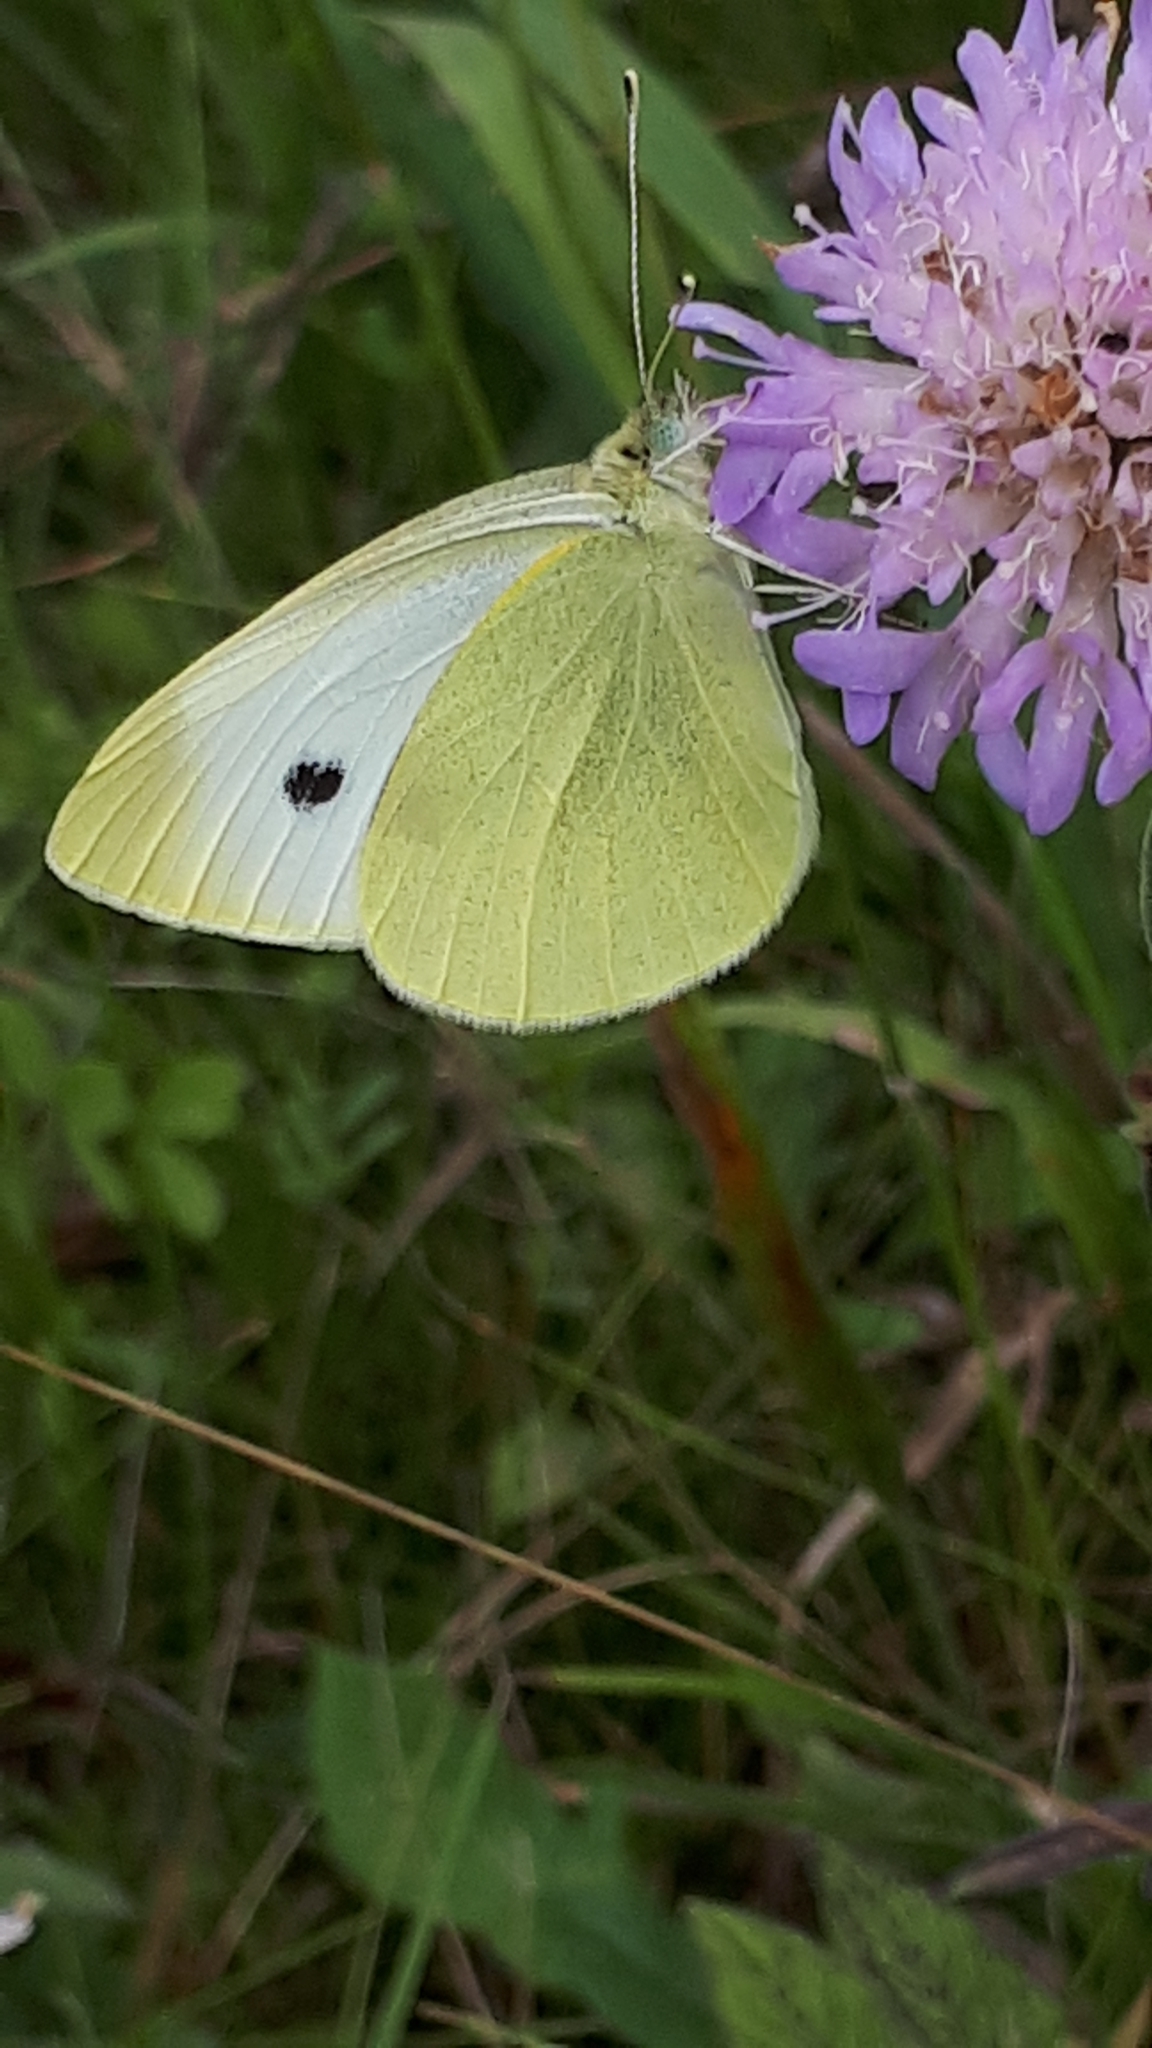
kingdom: Animalia
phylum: Arthropoda
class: Insecta
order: Lepidoptera
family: Pieridae
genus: Pieris
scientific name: Pieris rapae
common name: Small white
